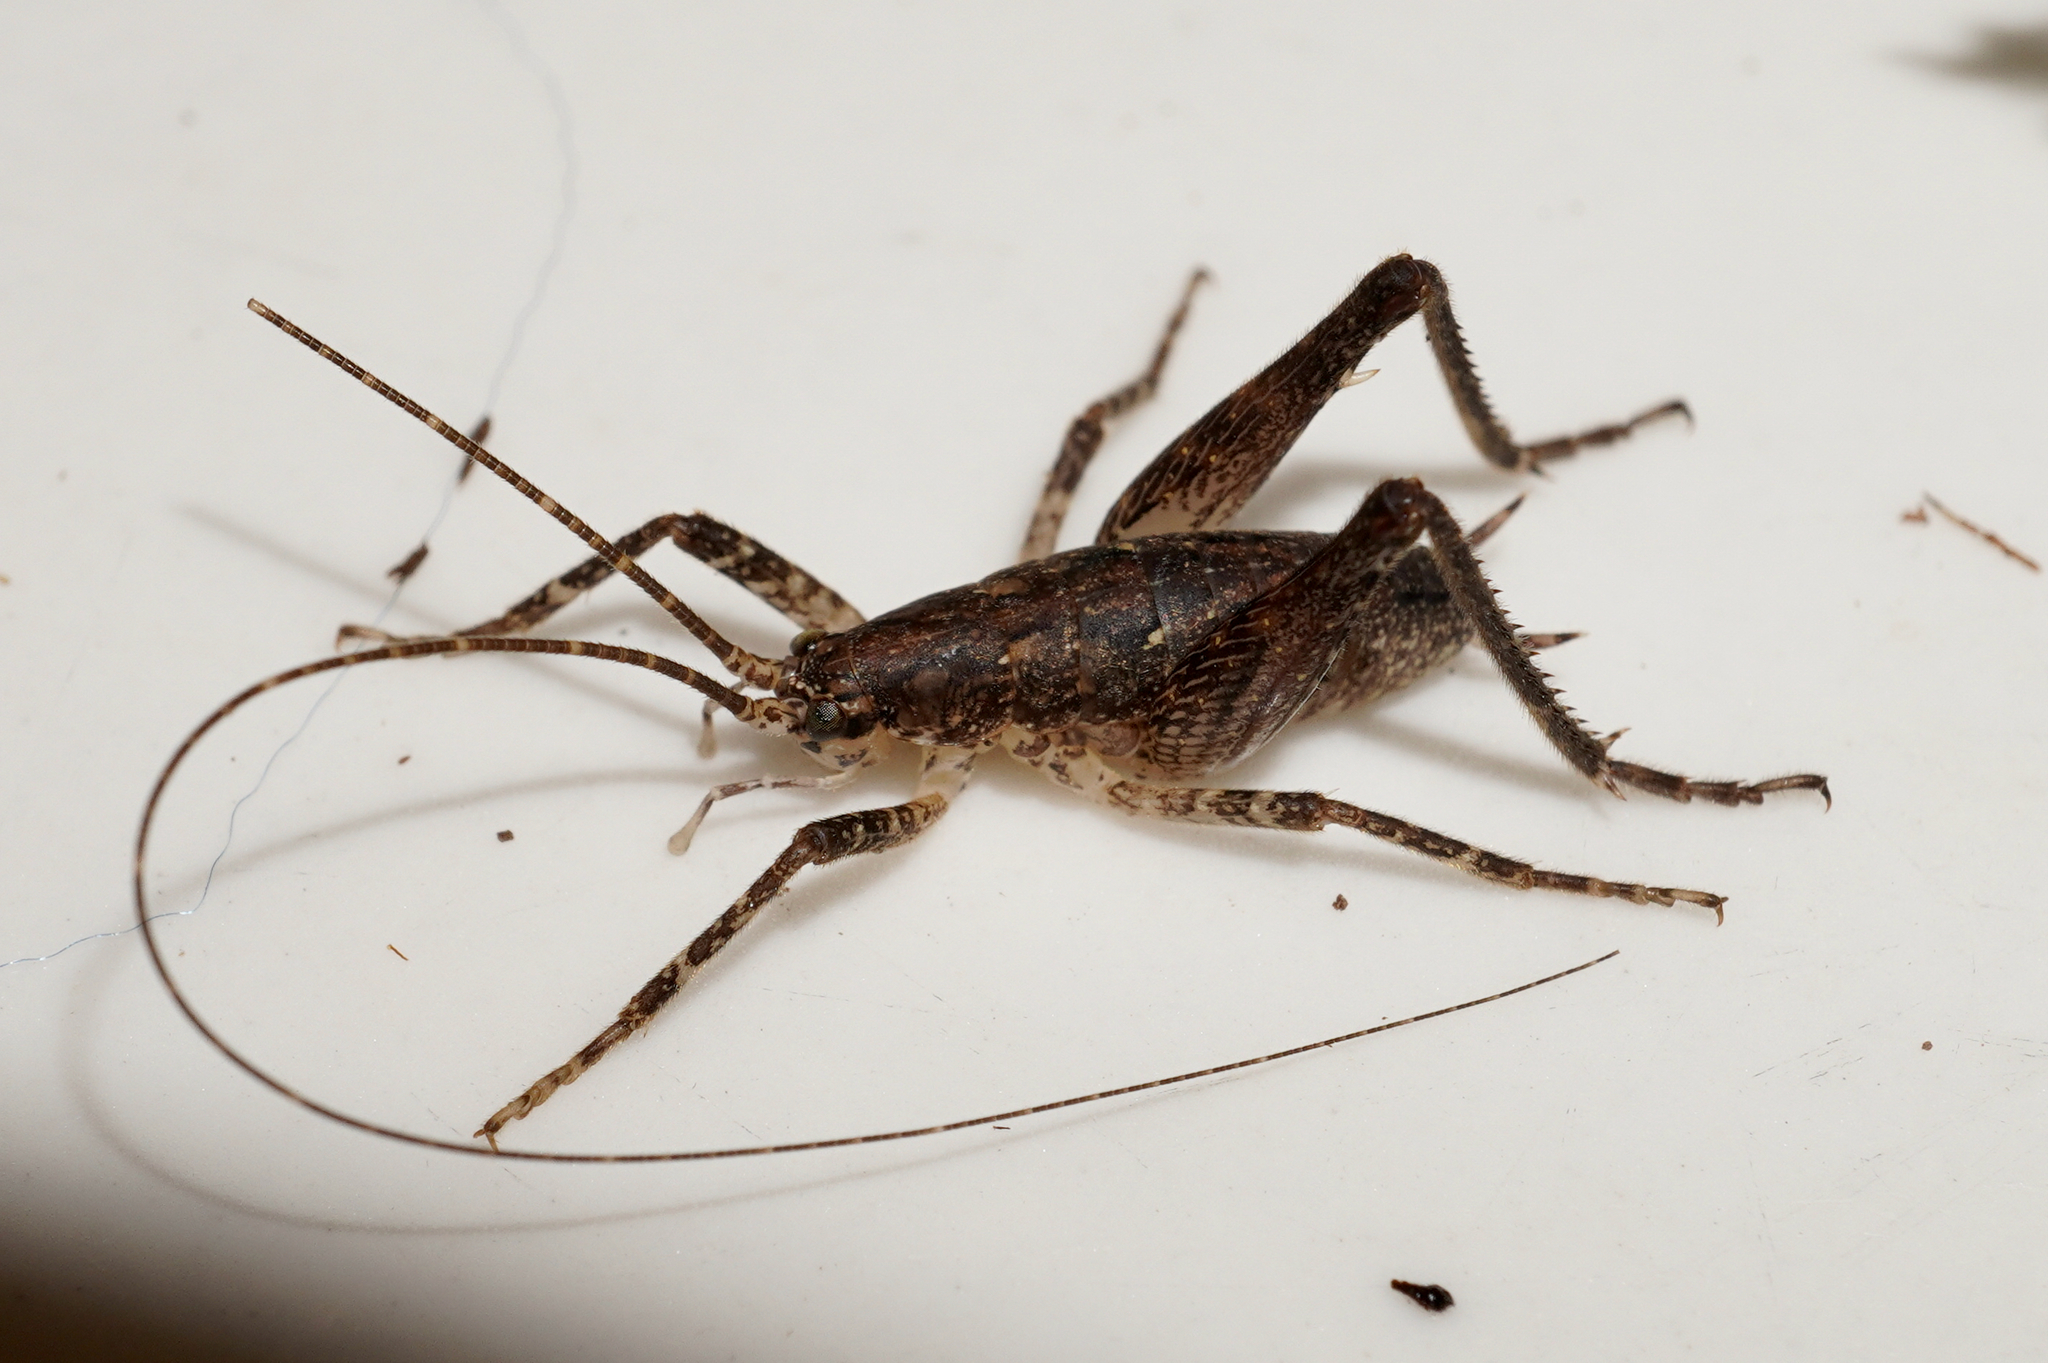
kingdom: Animalia
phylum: Arthropoda
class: Insecta
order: Orthoptera
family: Rhaphidophoridae
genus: Isoplectron
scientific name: Isoplectron armatum
